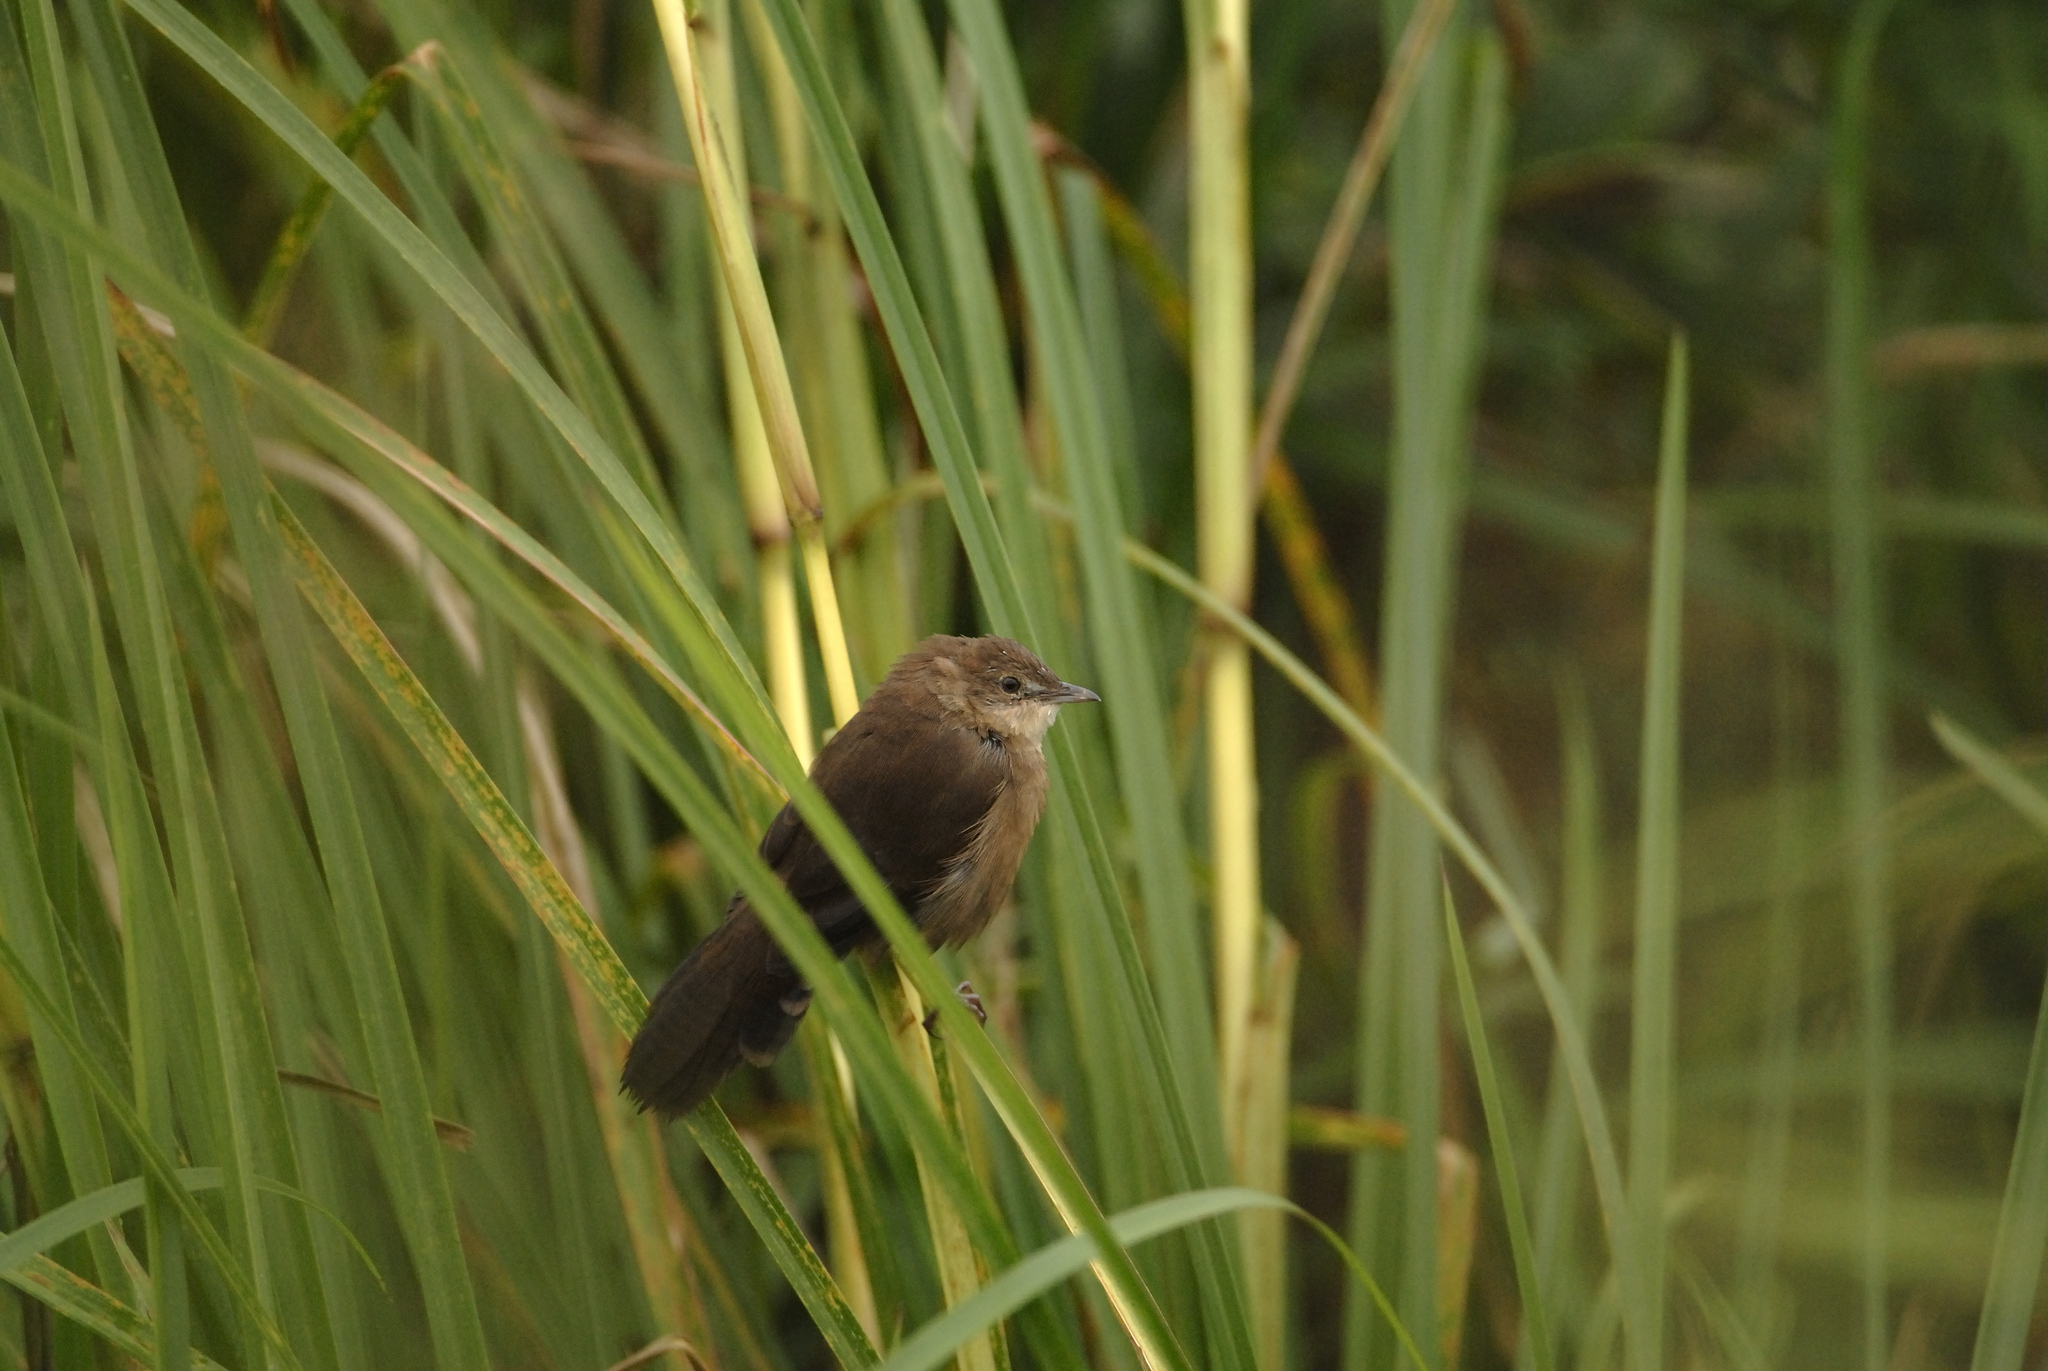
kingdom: Animalia
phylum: Chordata
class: Aves
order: Passeriformes
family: Locustellidae
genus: Schoenicola
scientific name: Schoenicola platyurus
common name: Broad-tailed grassbird
